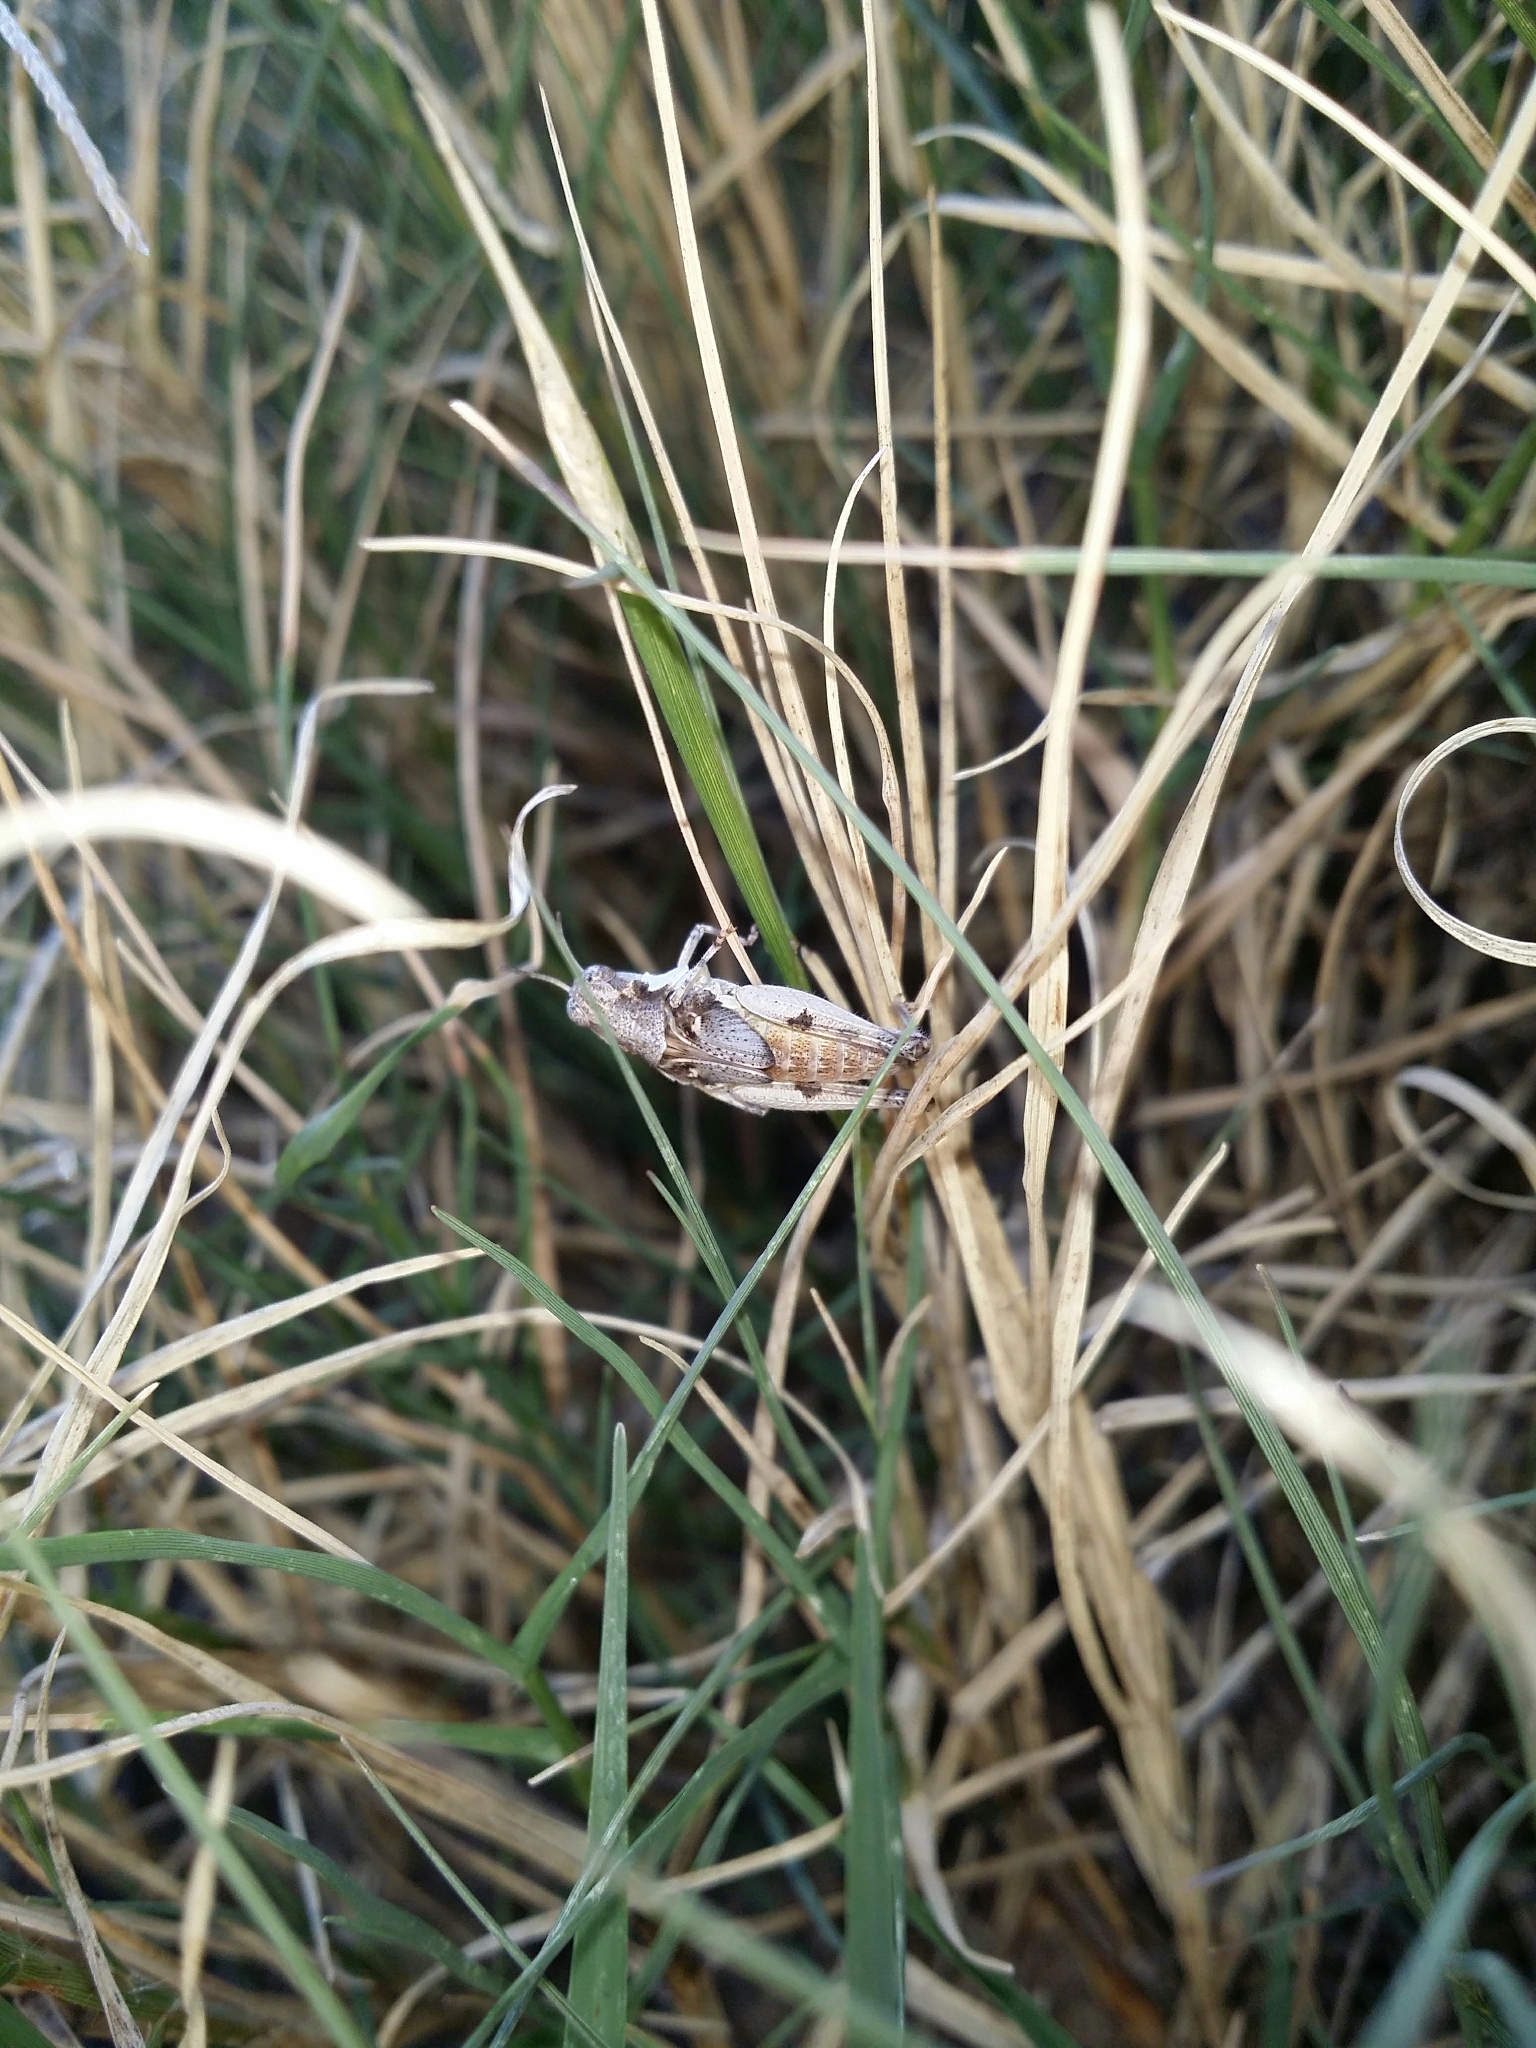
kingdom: Animalia
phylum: Arthropoda
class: Insecta
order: Orthoptera
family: Acrididae
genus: Pycnostictus
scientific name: Pycnostictus seriatus
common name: Common bandwing
